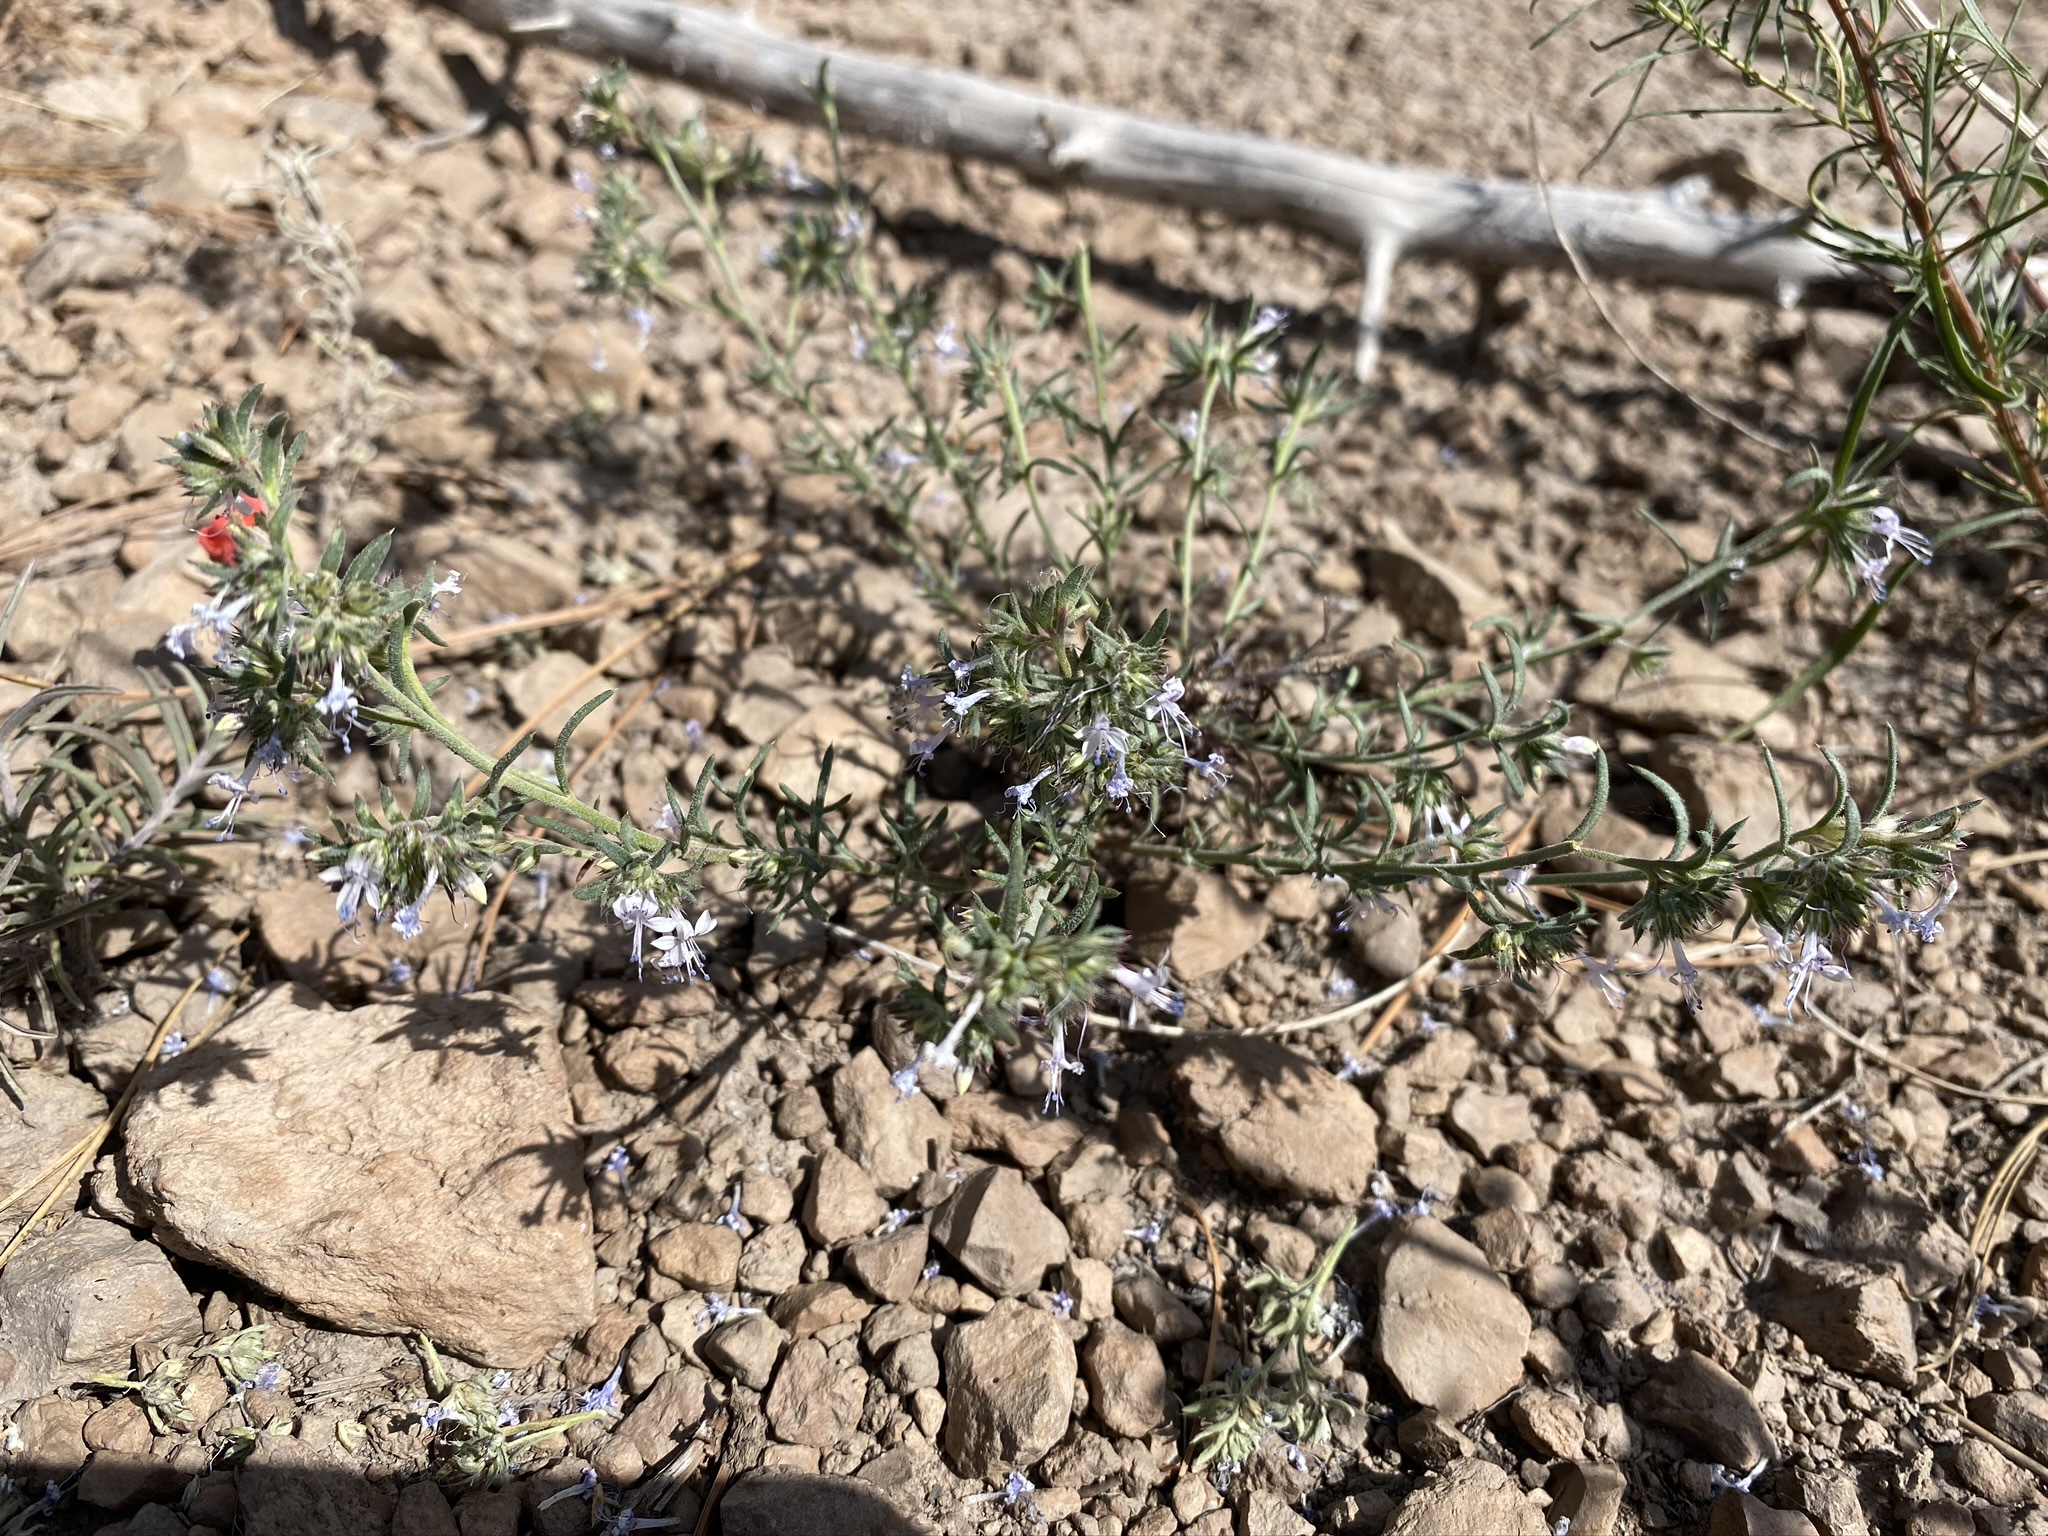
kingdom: Plantae
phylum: Tracheophyta
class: Magnoliopsida
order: Ericales
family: Polemoniaceae
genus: Ipomopsis
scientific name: Ipomopsis multiflora
